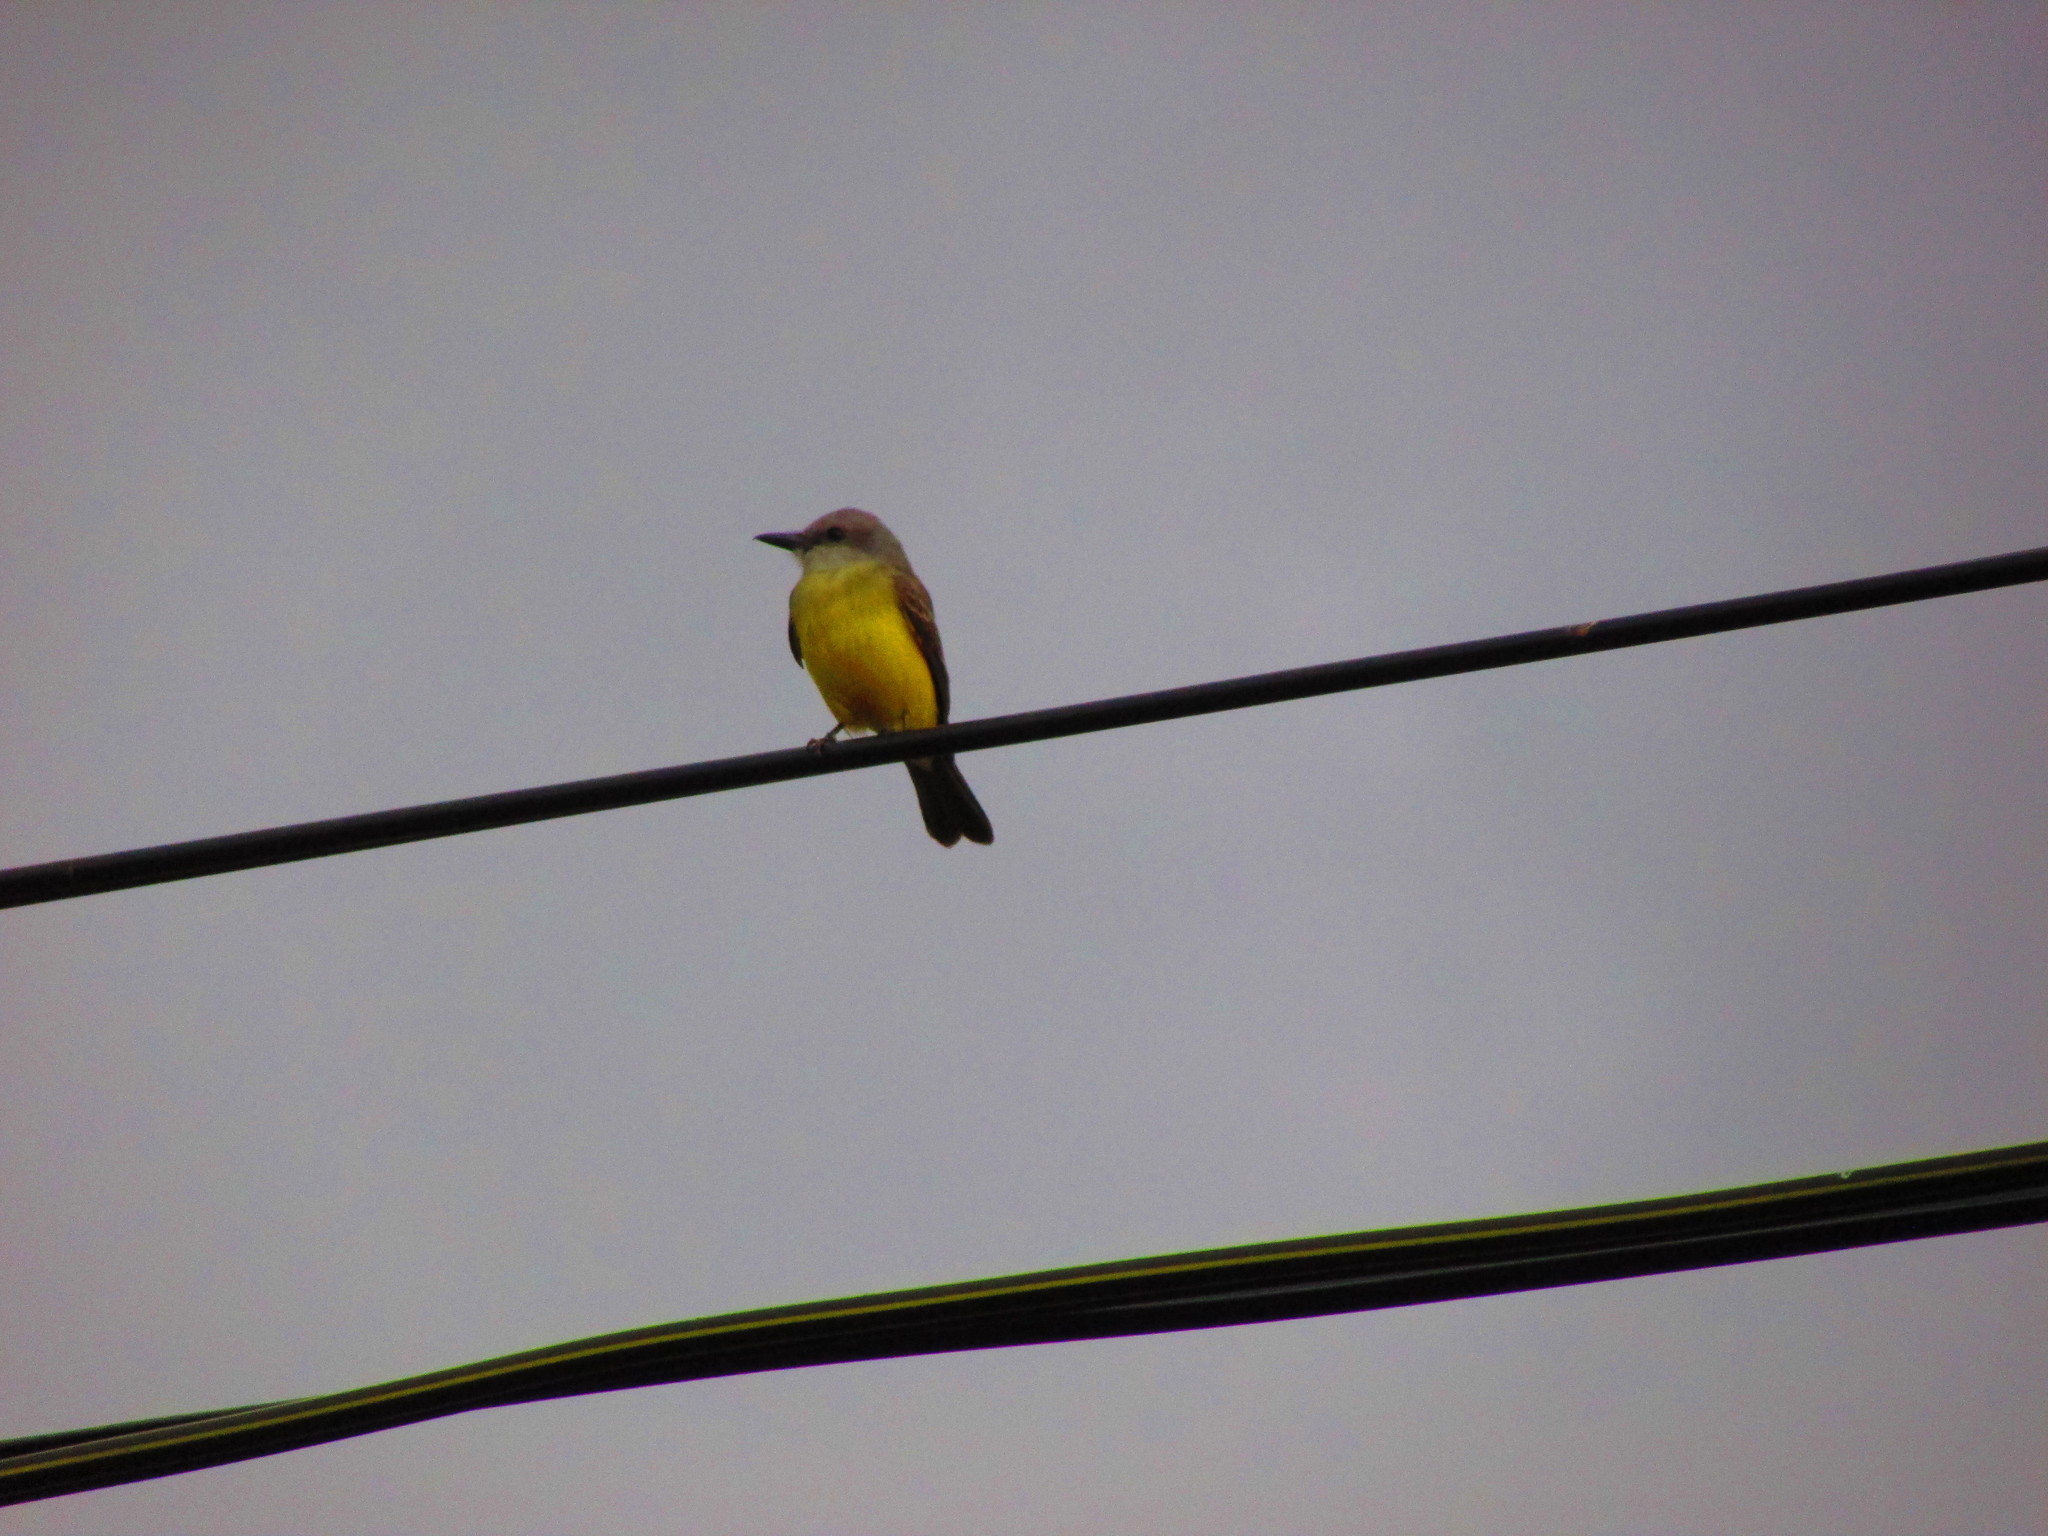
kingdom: Animalia
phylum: Chordata
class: Aves
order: Passeriformes
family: Tyrannidae
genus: Tyrannus
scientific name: Tyrannus melancholicus
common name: Tropical kingbird
